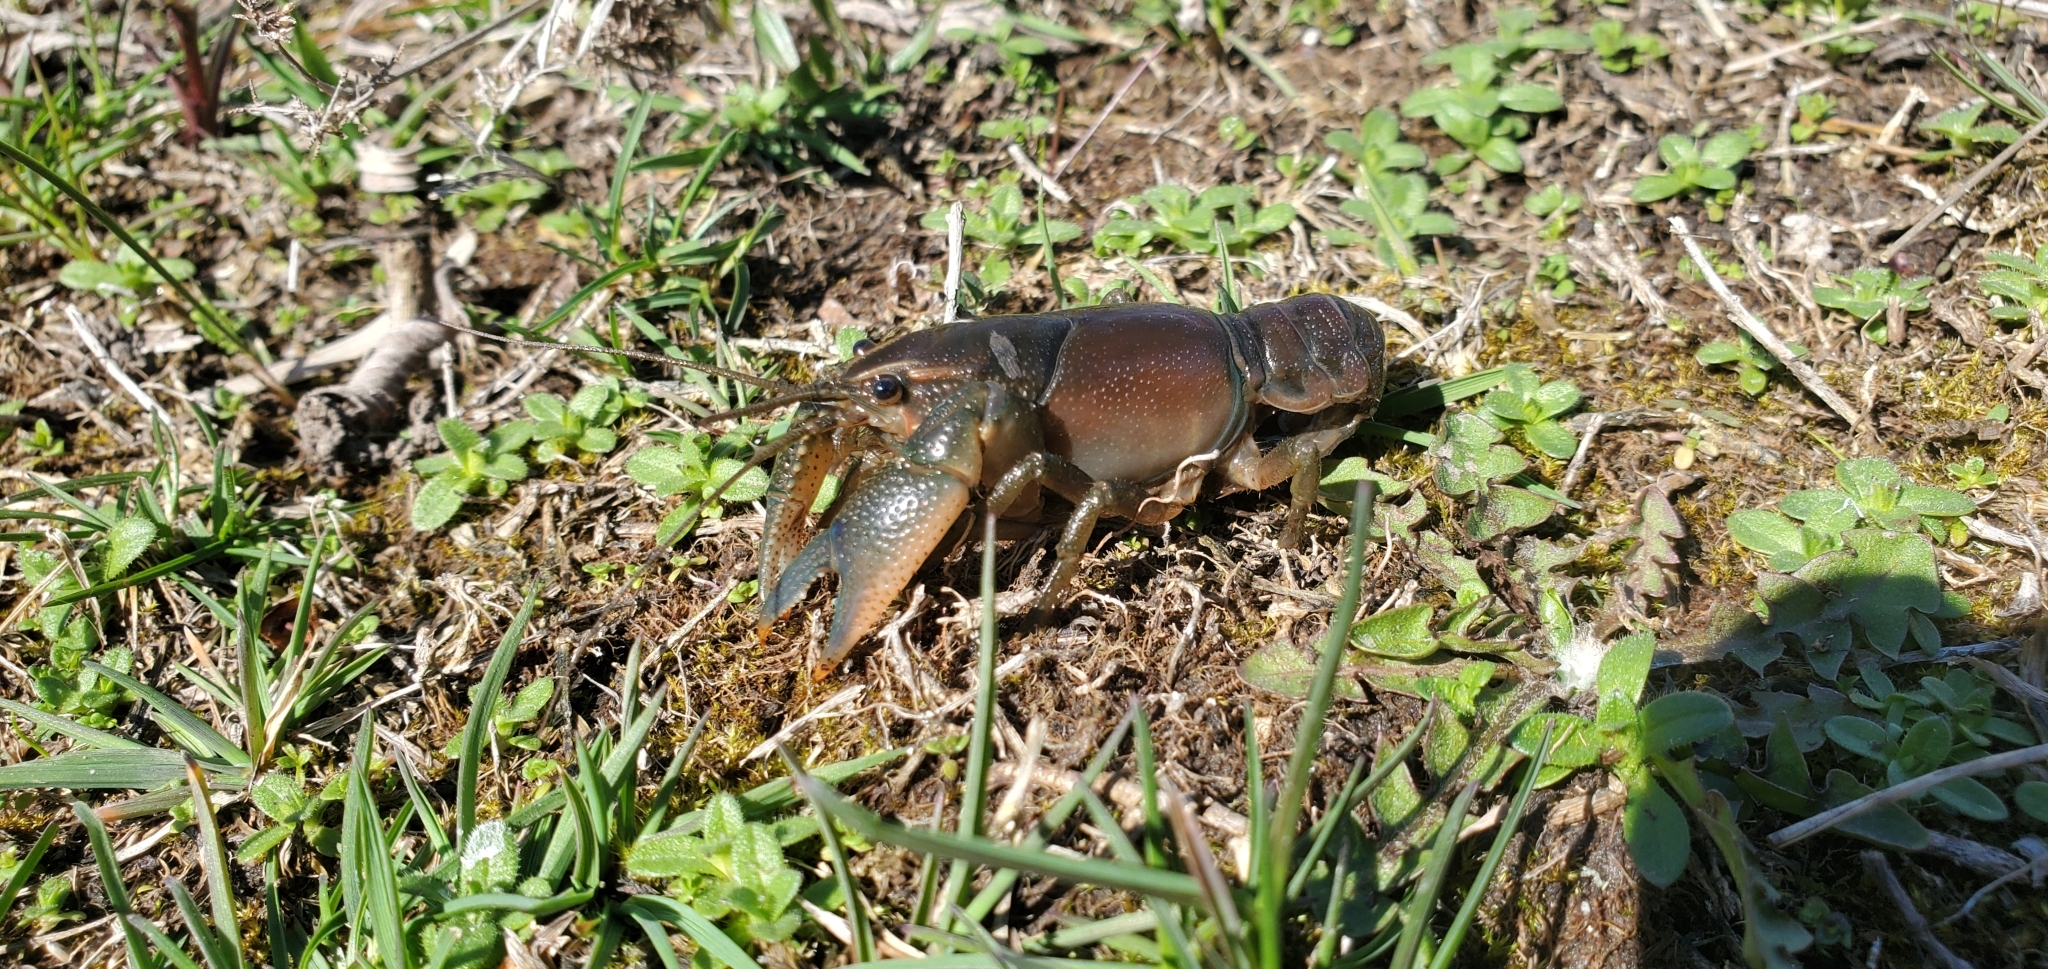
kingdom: Animalia
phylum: Arthropoda
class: Malacostraca
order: Decapoda
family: Cambaridae
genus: Procambarus
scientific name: Procambarus gracilis
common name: Prairie crayfish
